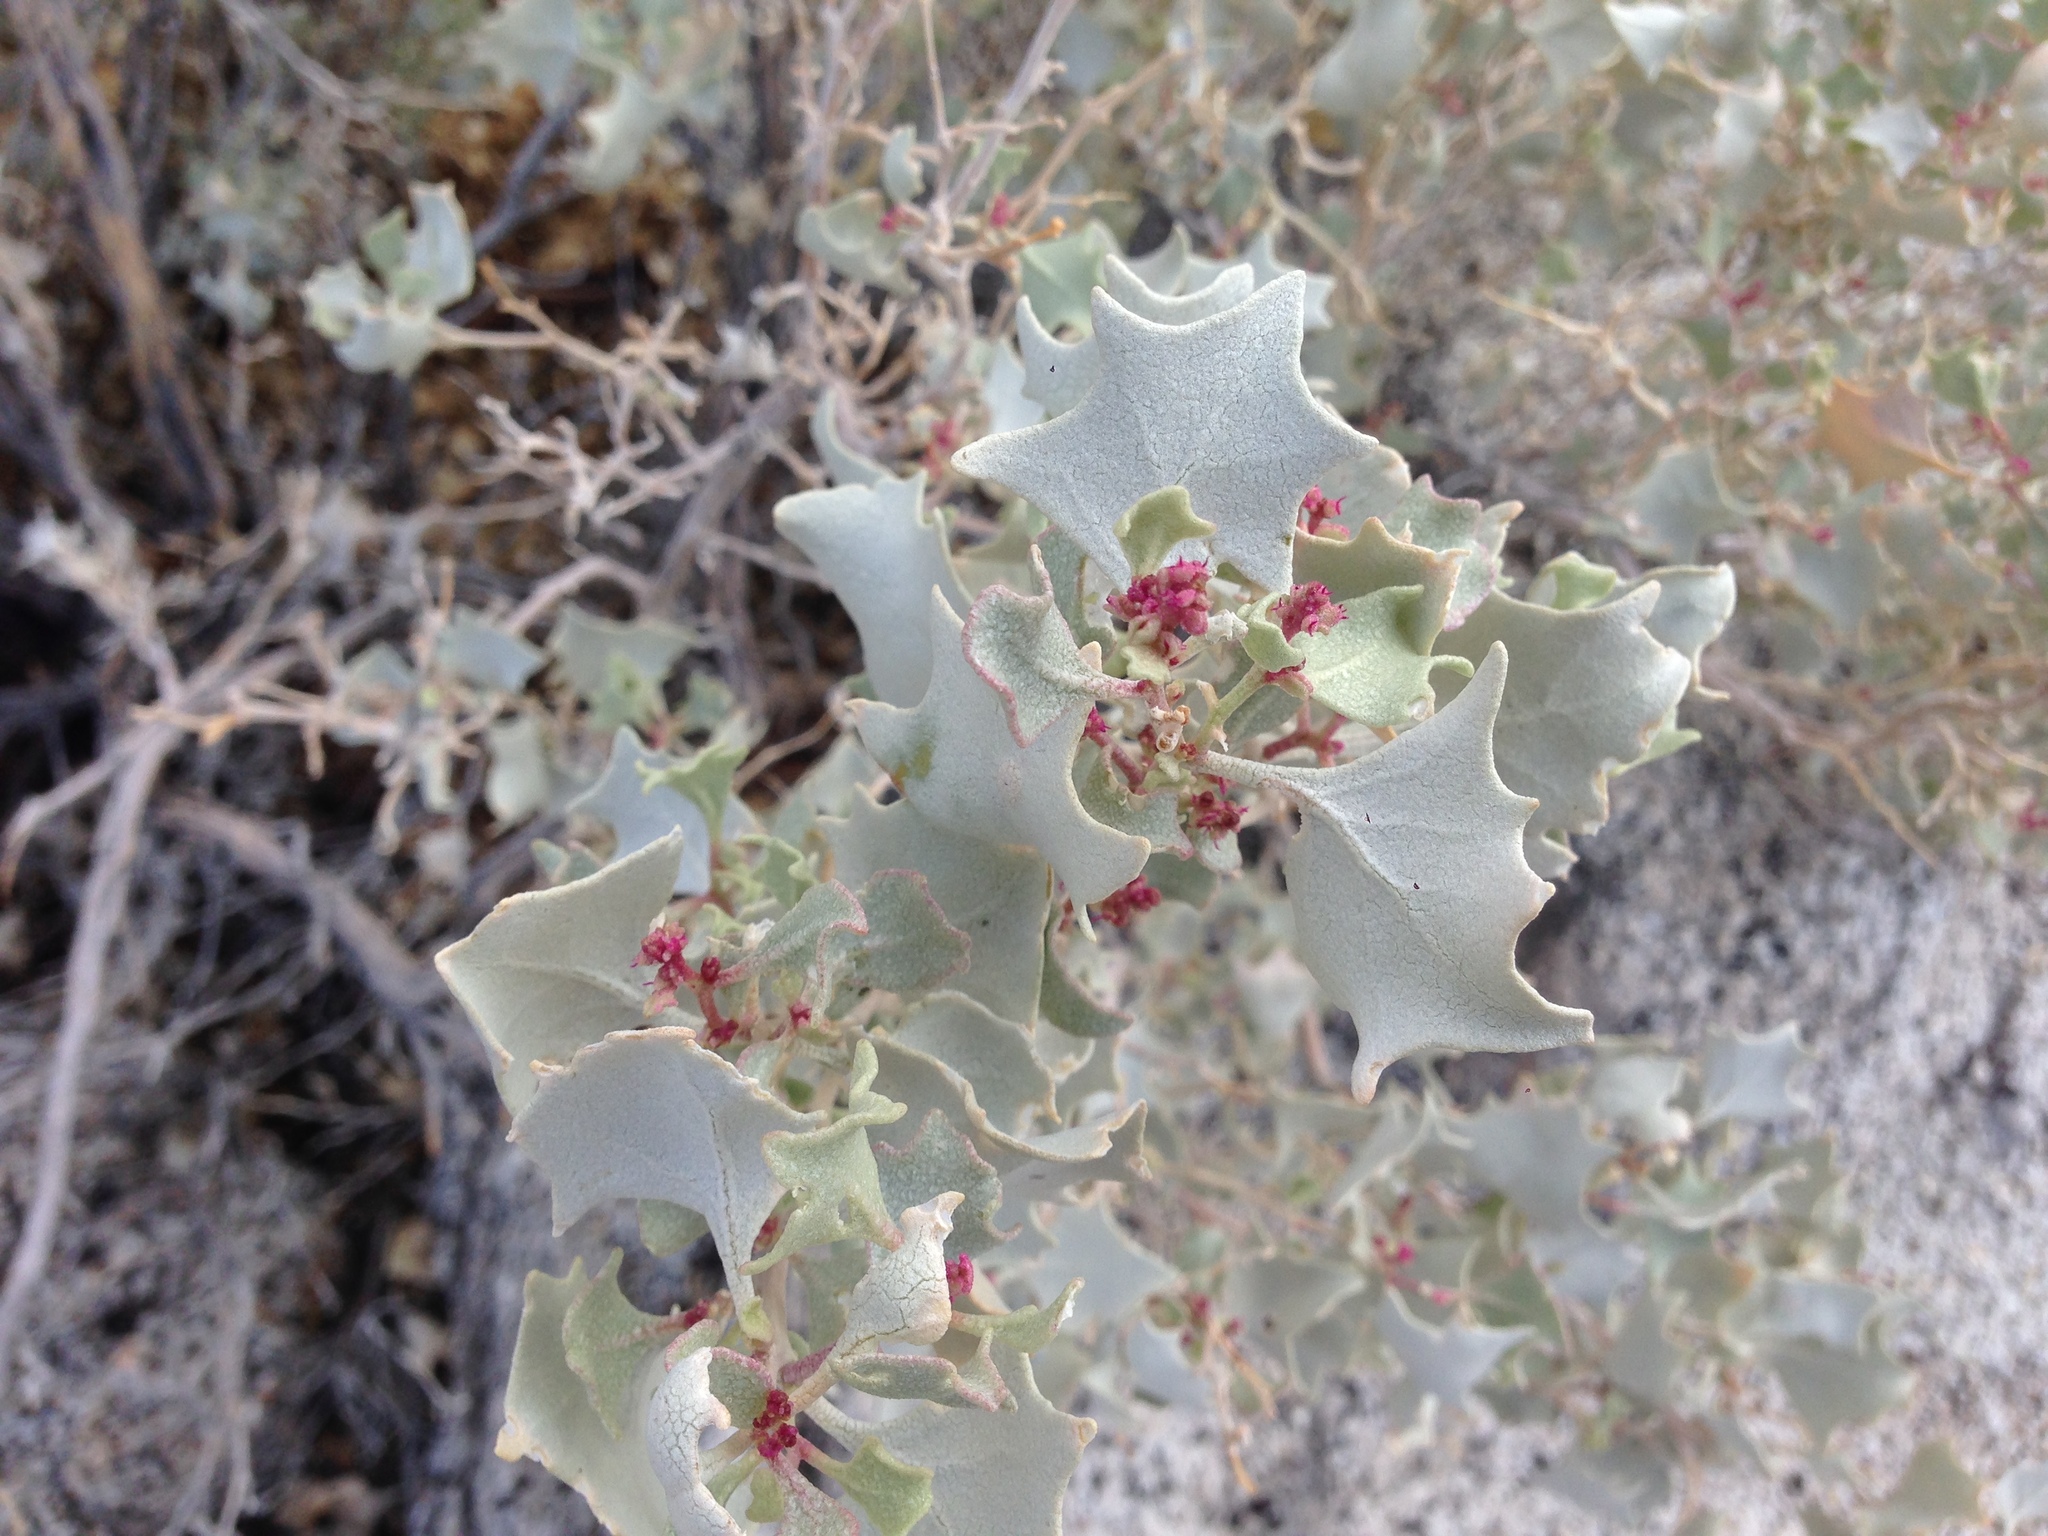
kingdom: Plantae
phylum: Tracheophyta
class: Magnoliopsida
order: Caryophyllales
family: Amaranthaceae
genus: Atriplex
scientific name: Atriplex hymenelytra
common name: Desert-holly
